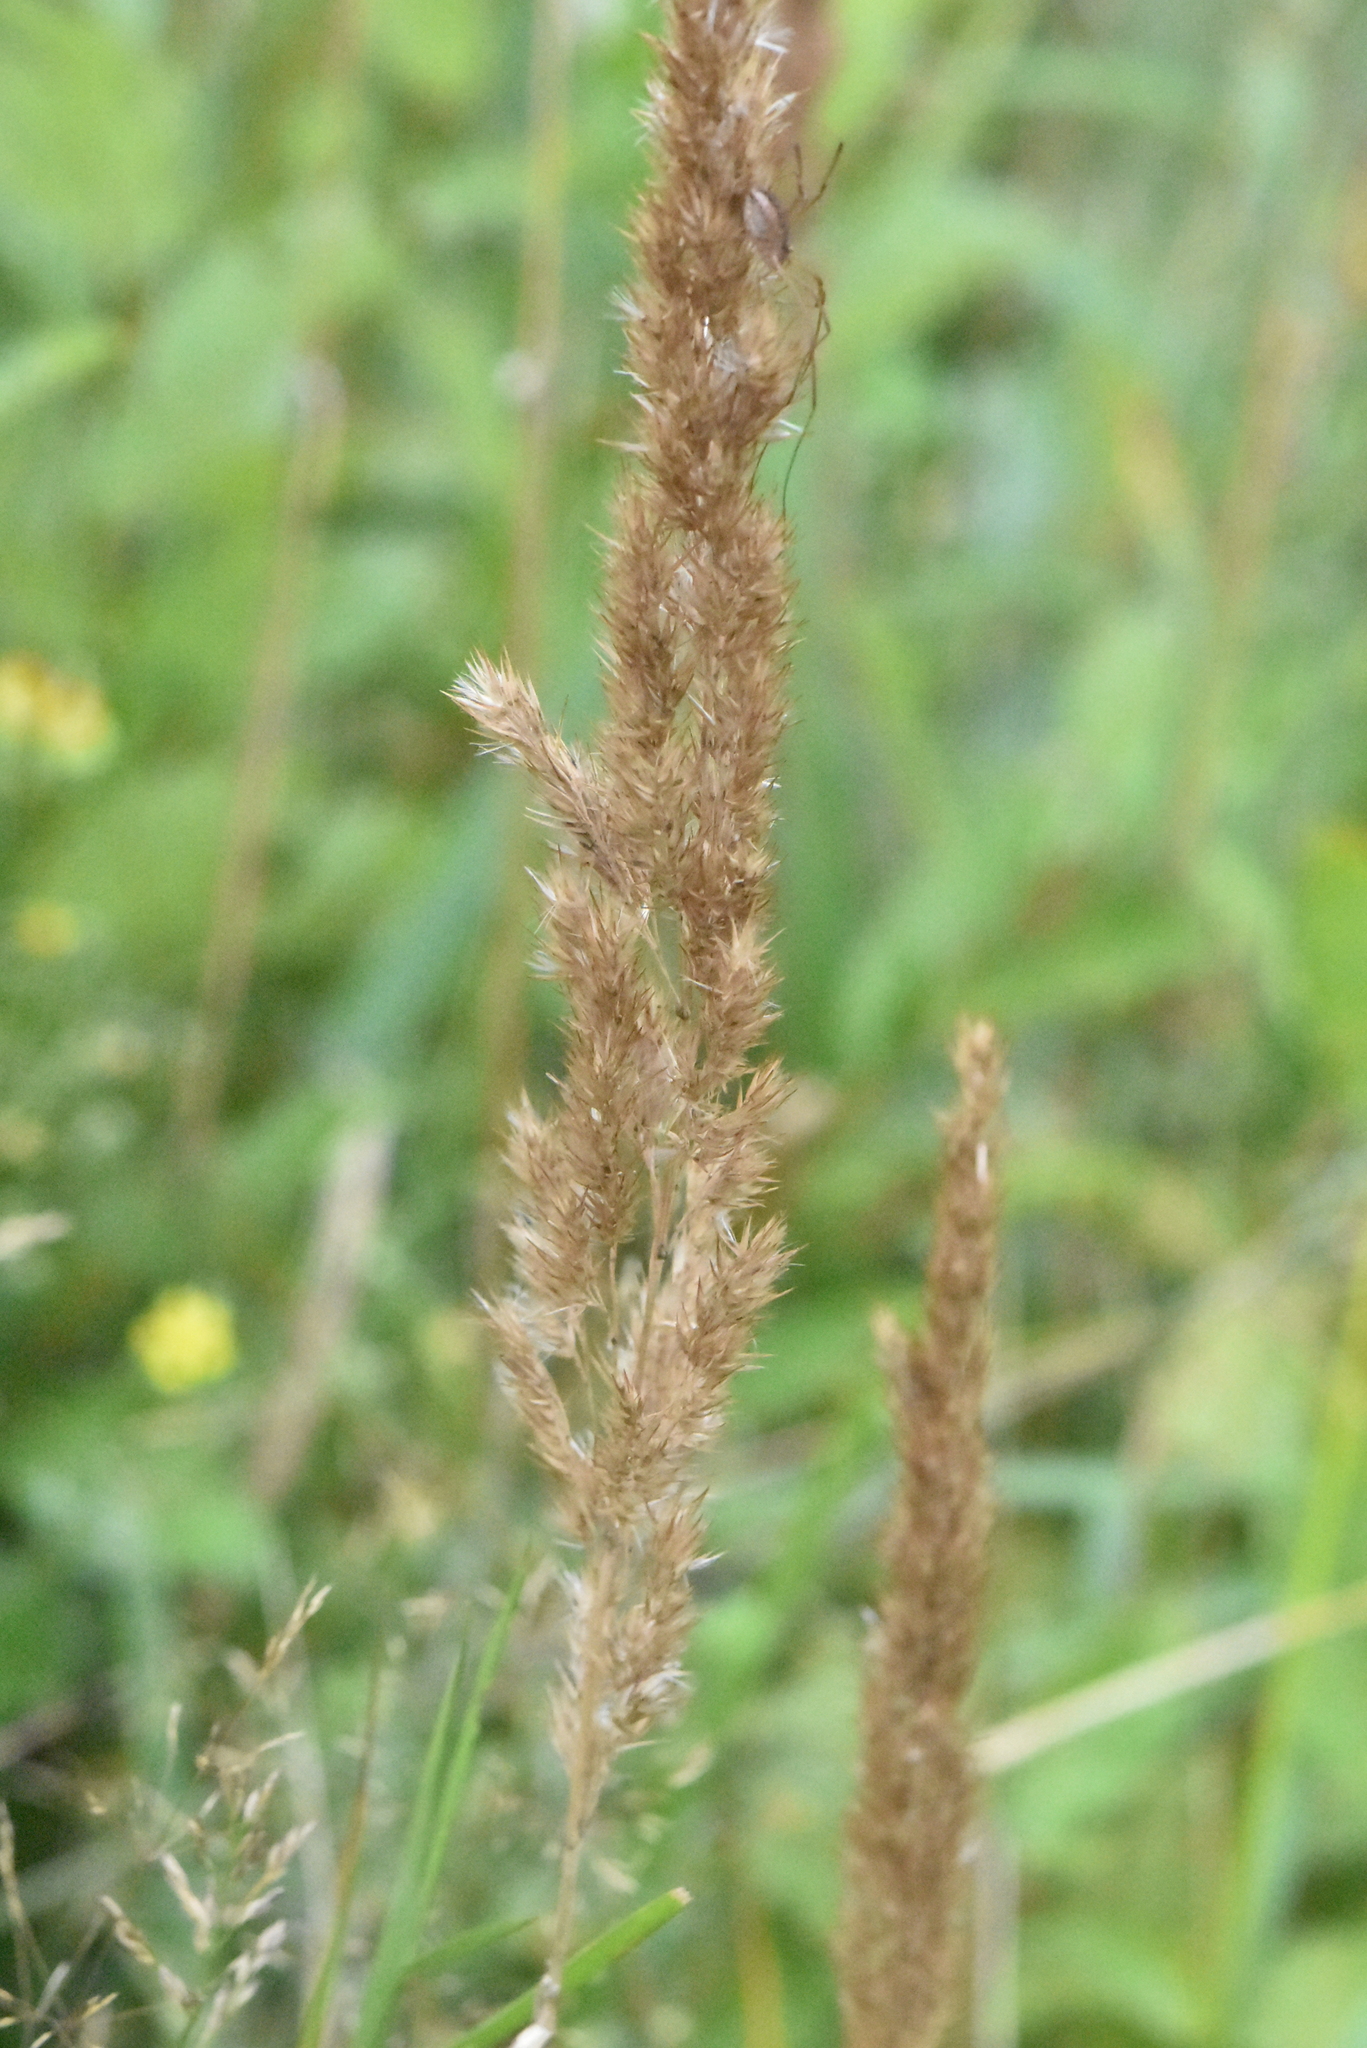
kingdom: Plantae
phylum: Tracheophyta
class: Liliopsida
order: Poales
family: Poaceae
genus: Calamagrostis
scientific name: Calamagrostis epigejos
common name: Wood small-reed
